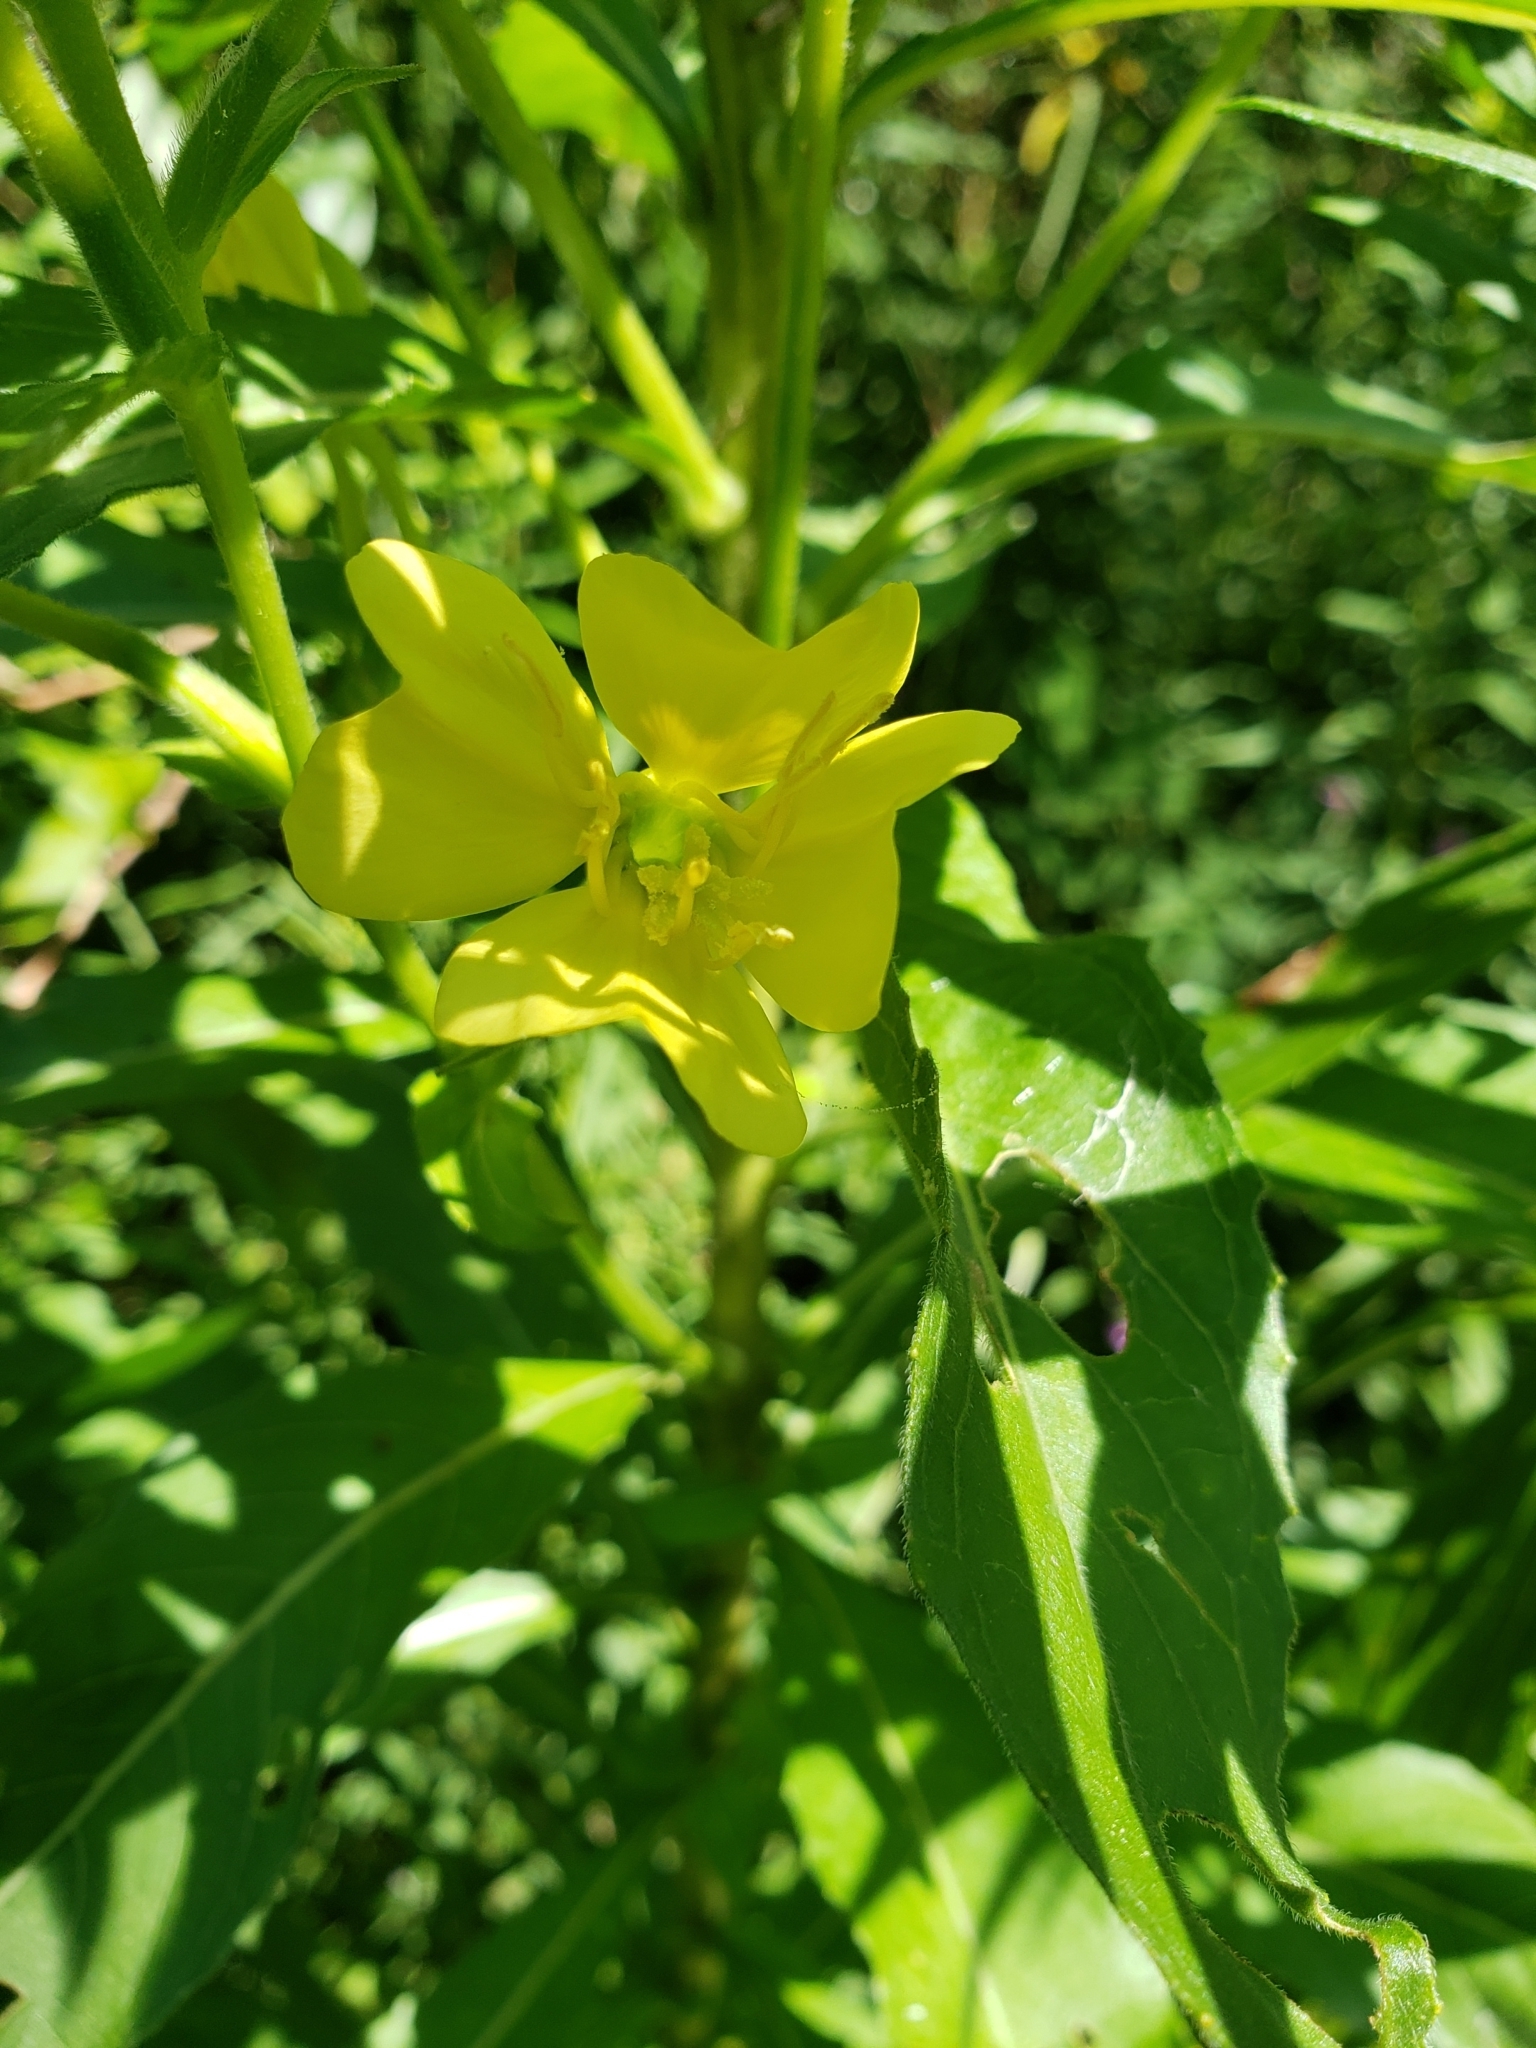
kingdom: Plantae
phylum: Tracheophyta
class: Magnoliopsida
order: Myrtales
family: Onagraceae
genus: Oenothera
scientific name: Oenothera biennis
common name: Common evening-primrose
